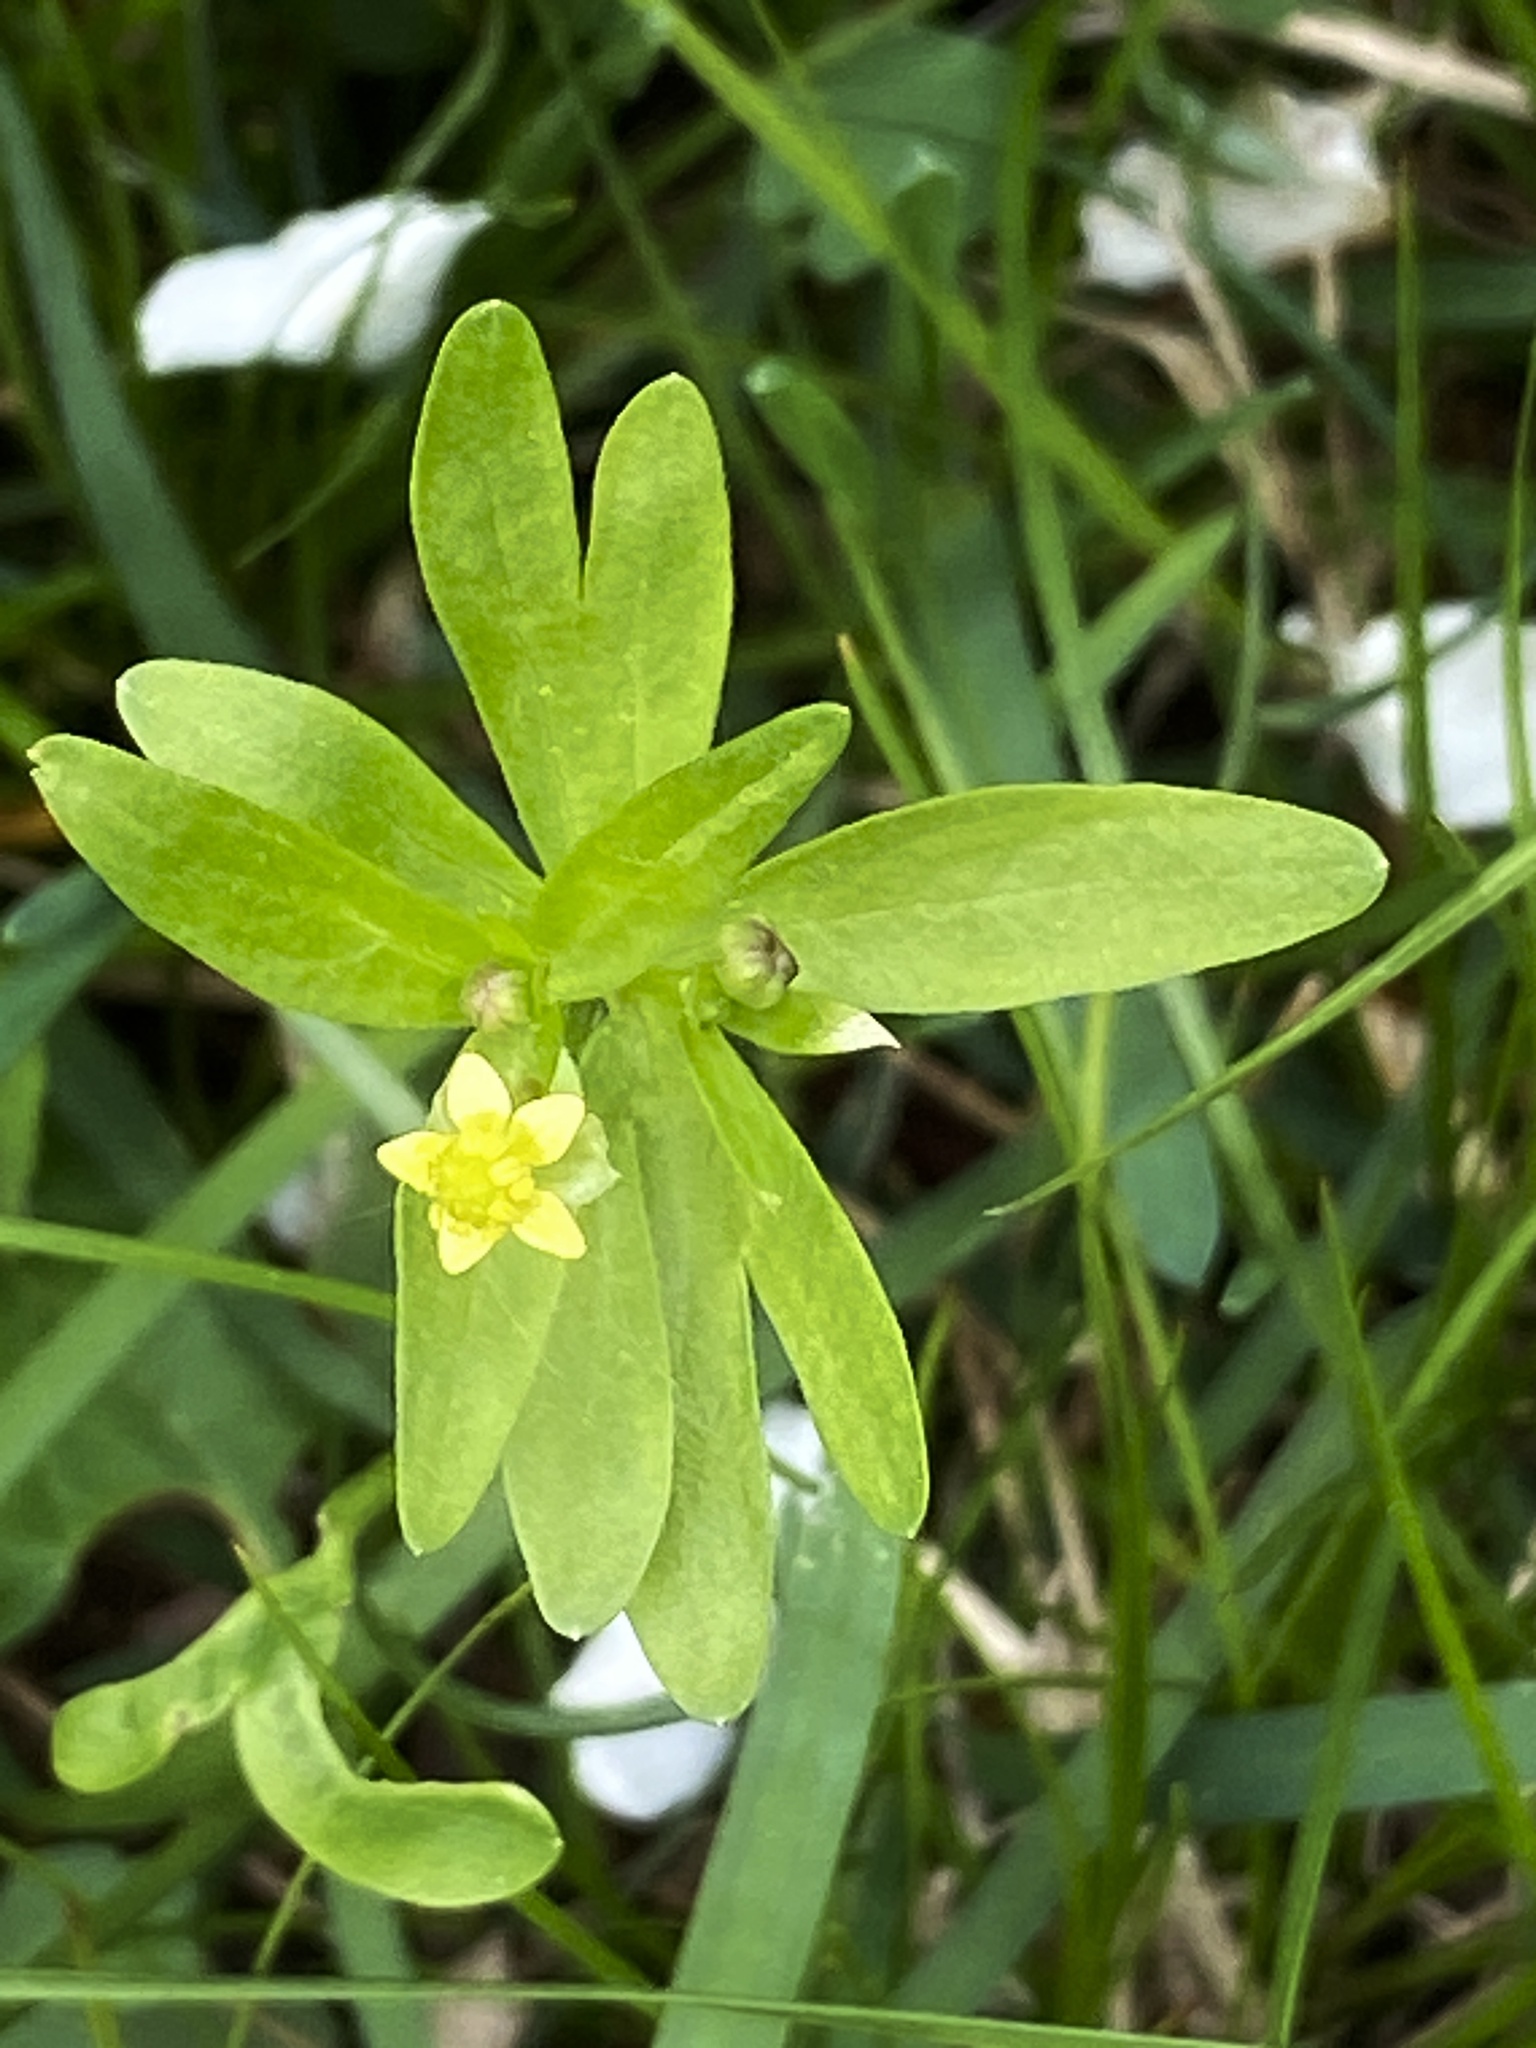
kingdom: Plantae
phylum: Tracheophyta
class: Magnoliopsida
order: Ranunculales
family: Ranunculaceae
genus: Ranunculus
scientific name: Ranunculus abortivus
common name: Early wood buttercup
